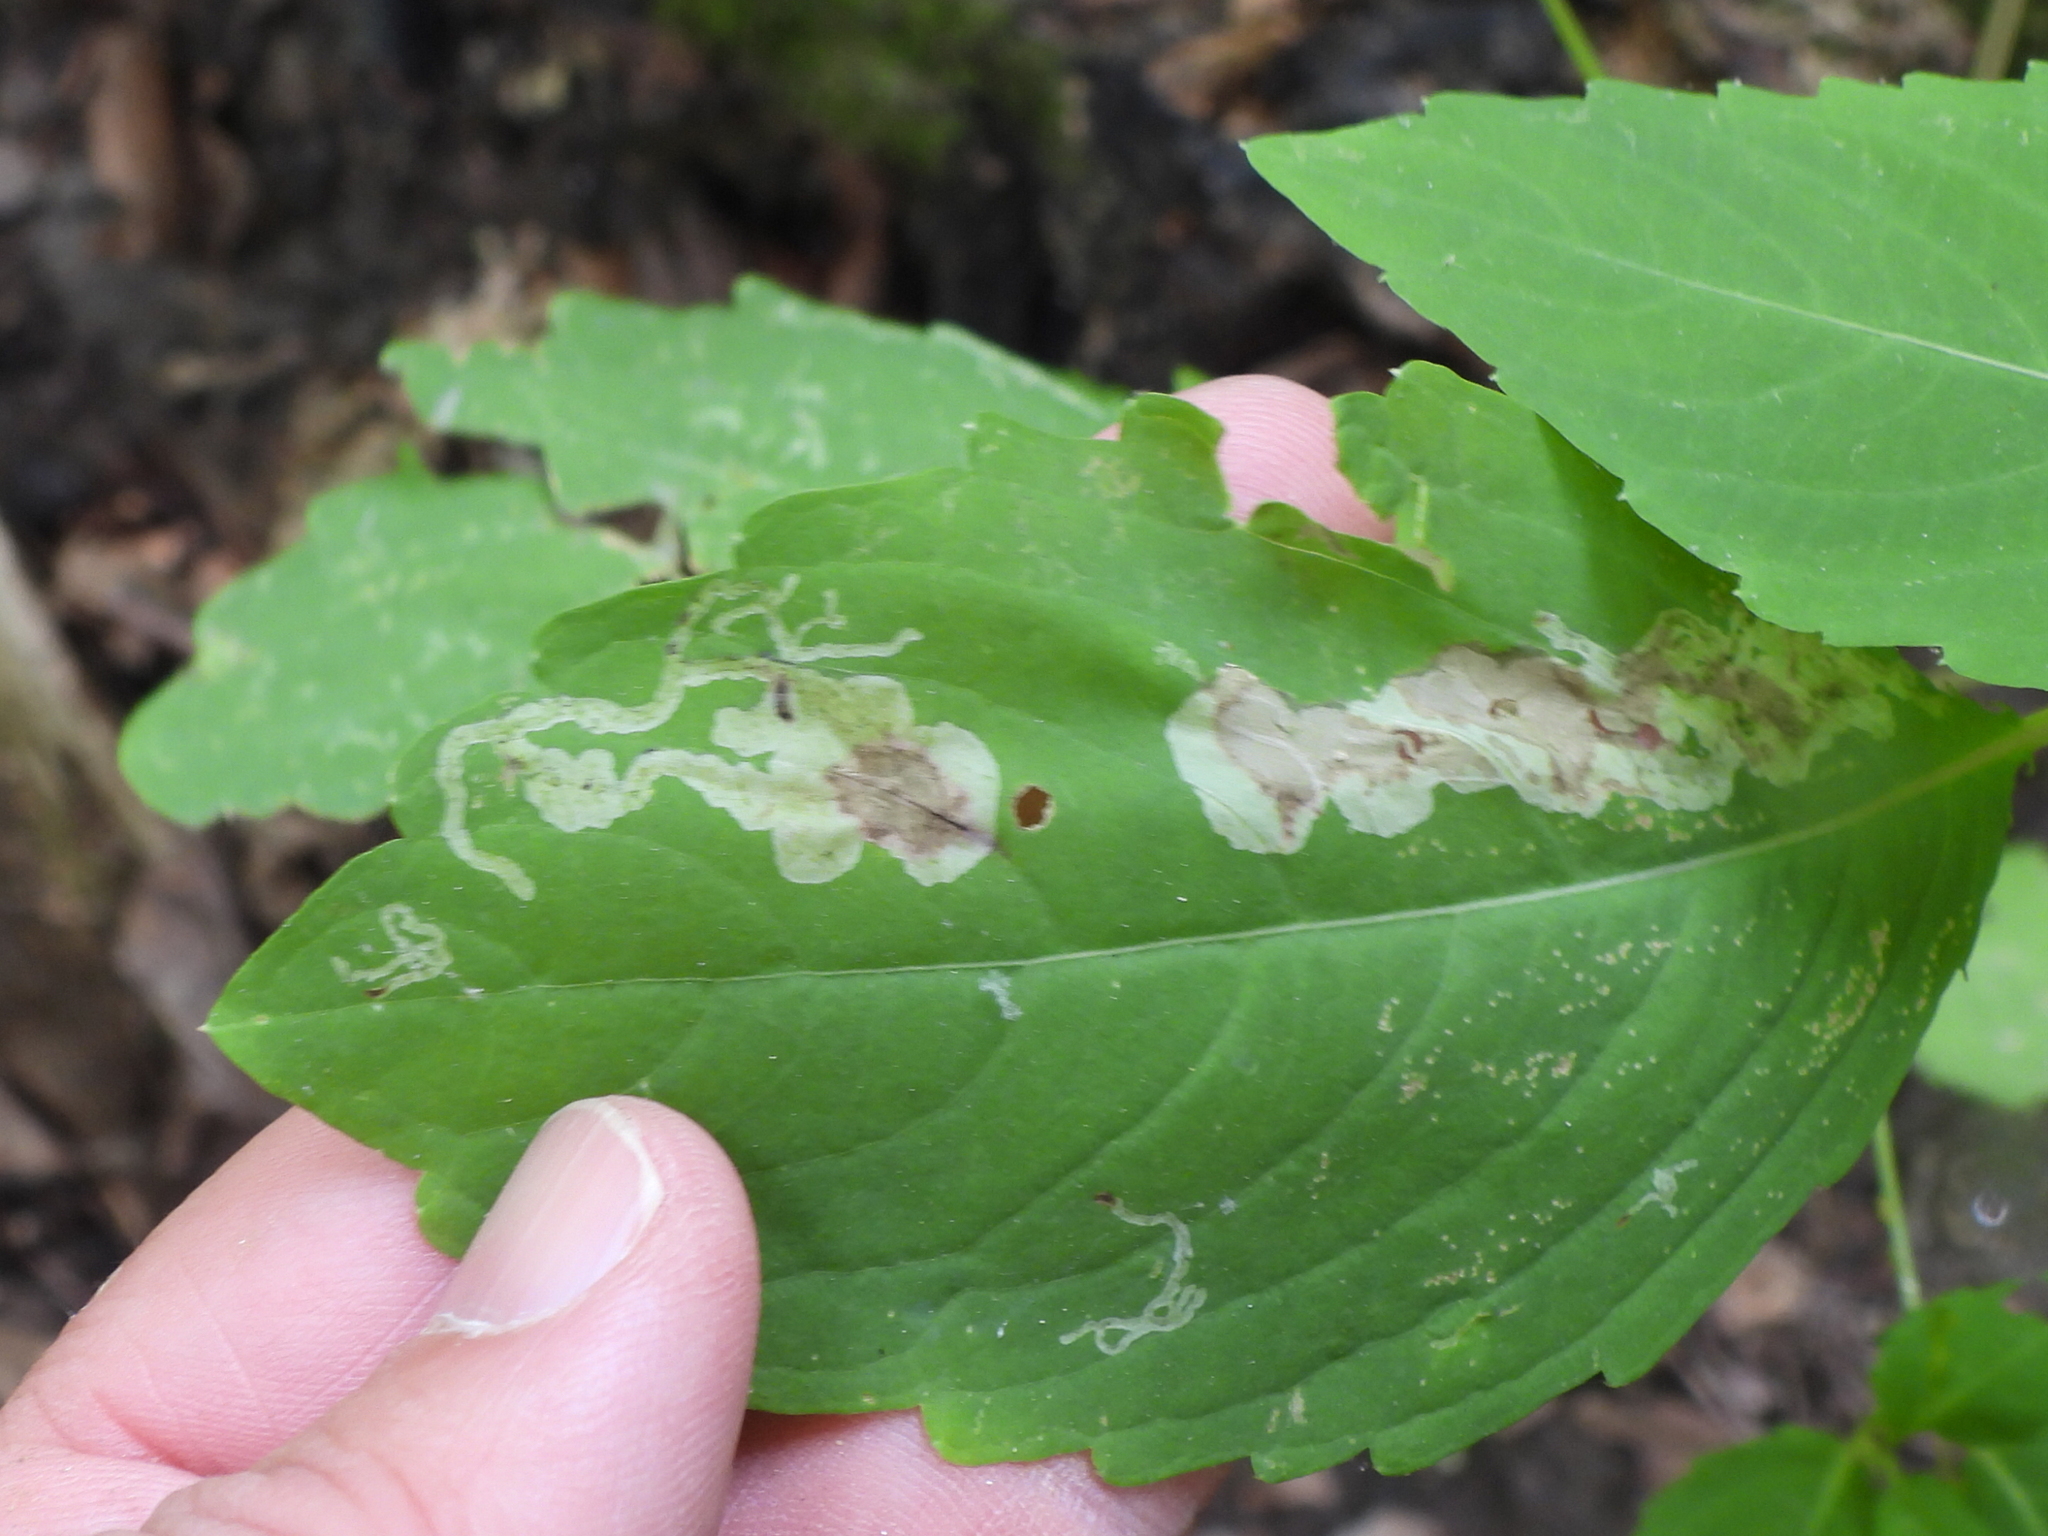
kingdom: Animalia
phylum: Arthropoda
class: Insecta
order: Diptera
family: Agromyzidae
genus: Phytoliriomyza
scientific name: Phytoliriomyza melampyga
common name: Jewelweed leaf-miner fly
